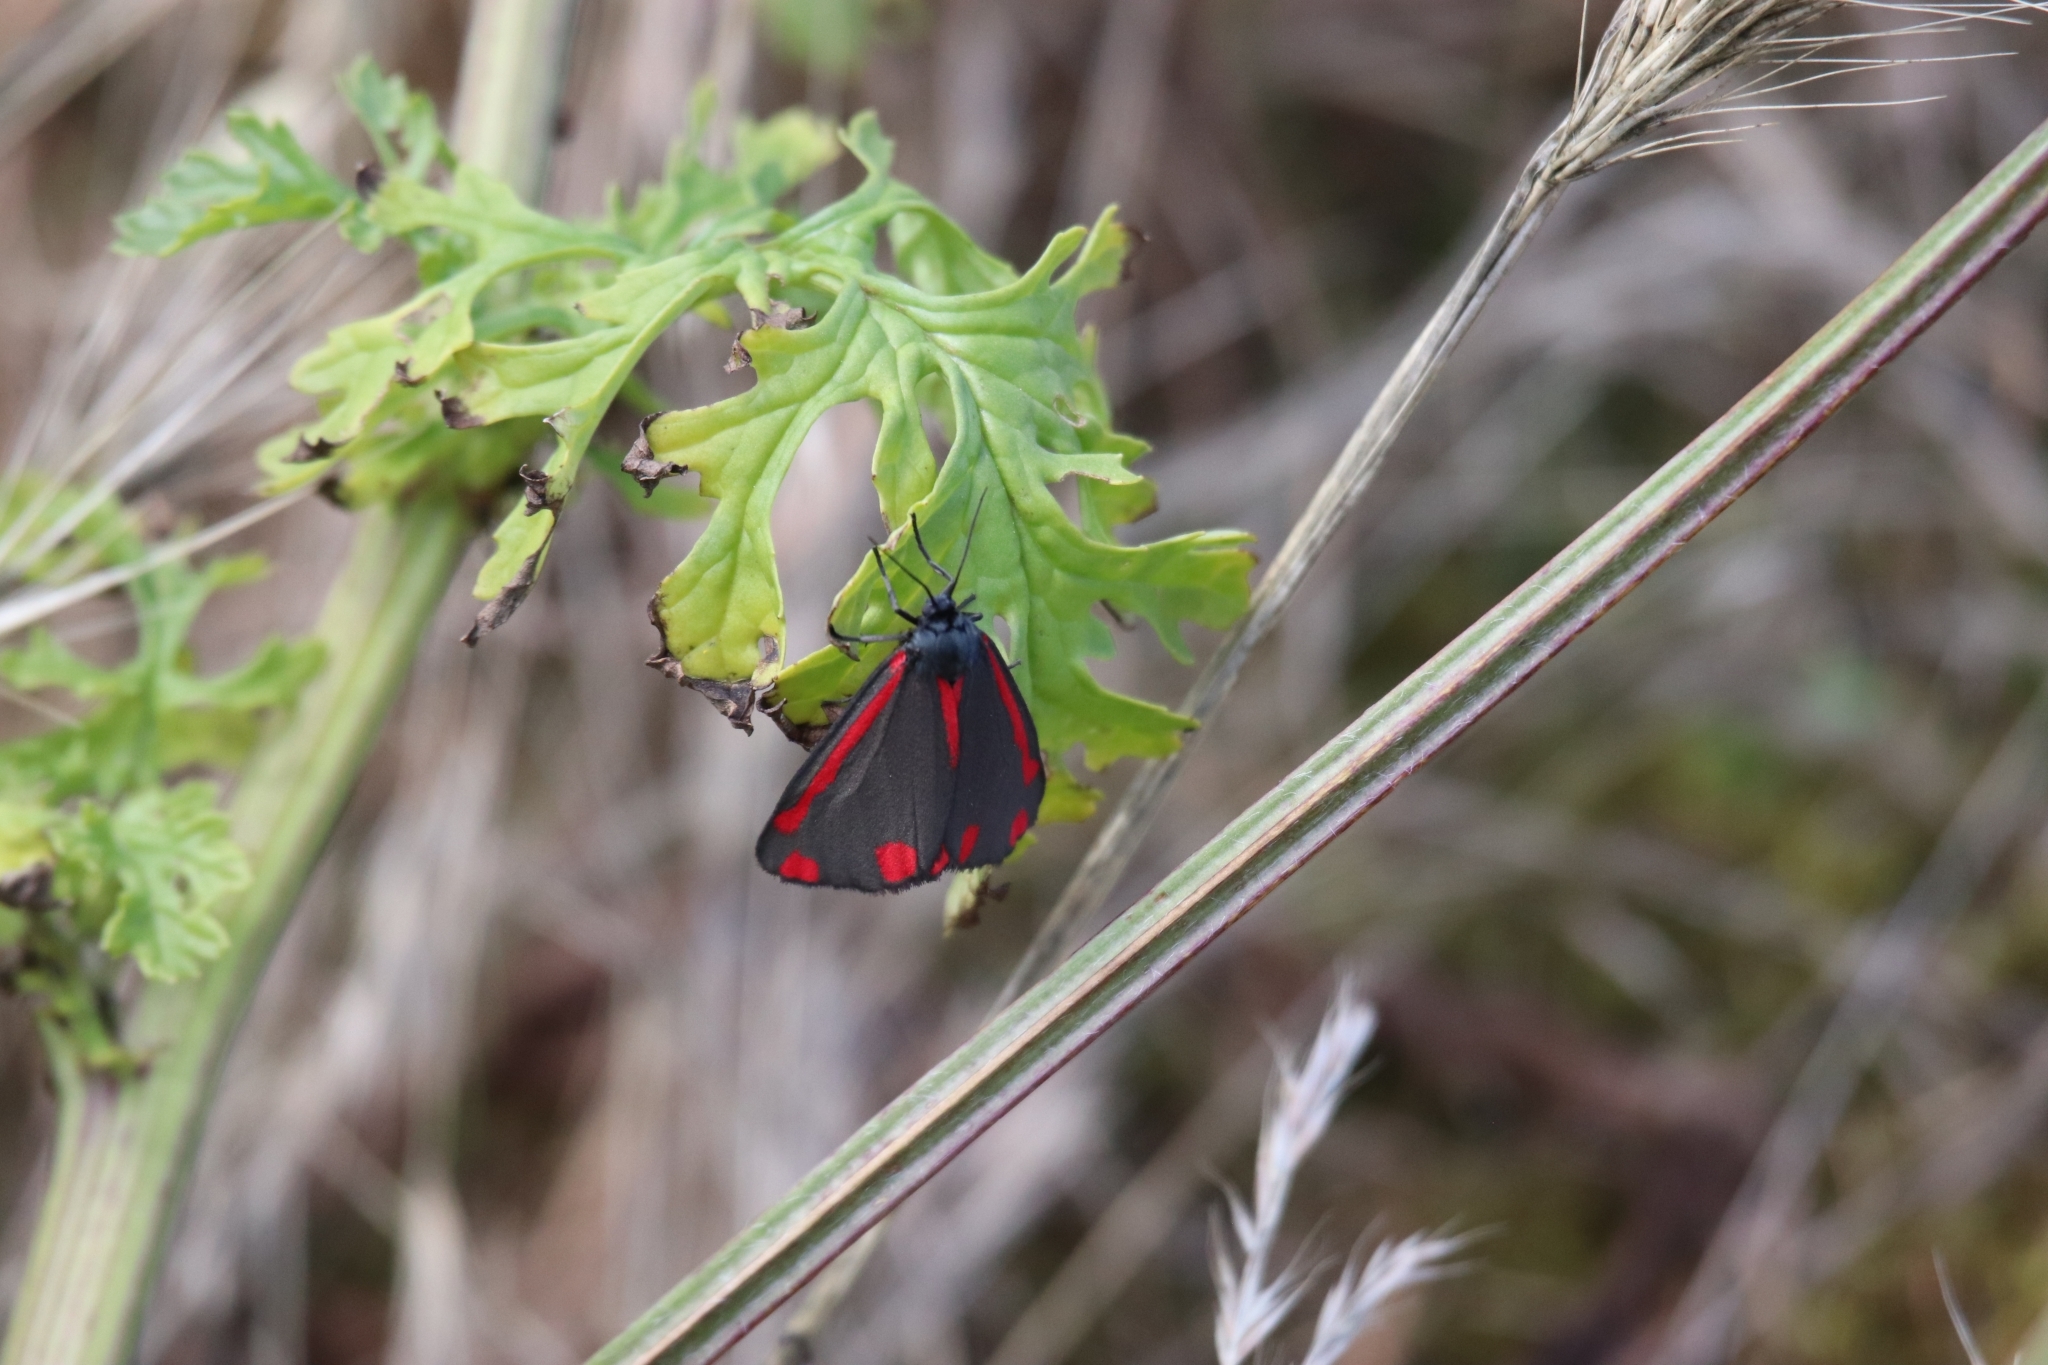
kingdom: Animalia
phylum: Arthropoda
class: Insecta
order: Lepidoptera
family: Erebidae
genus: Tyria
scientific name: Tyria jacobaeae
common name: Cinnabar
